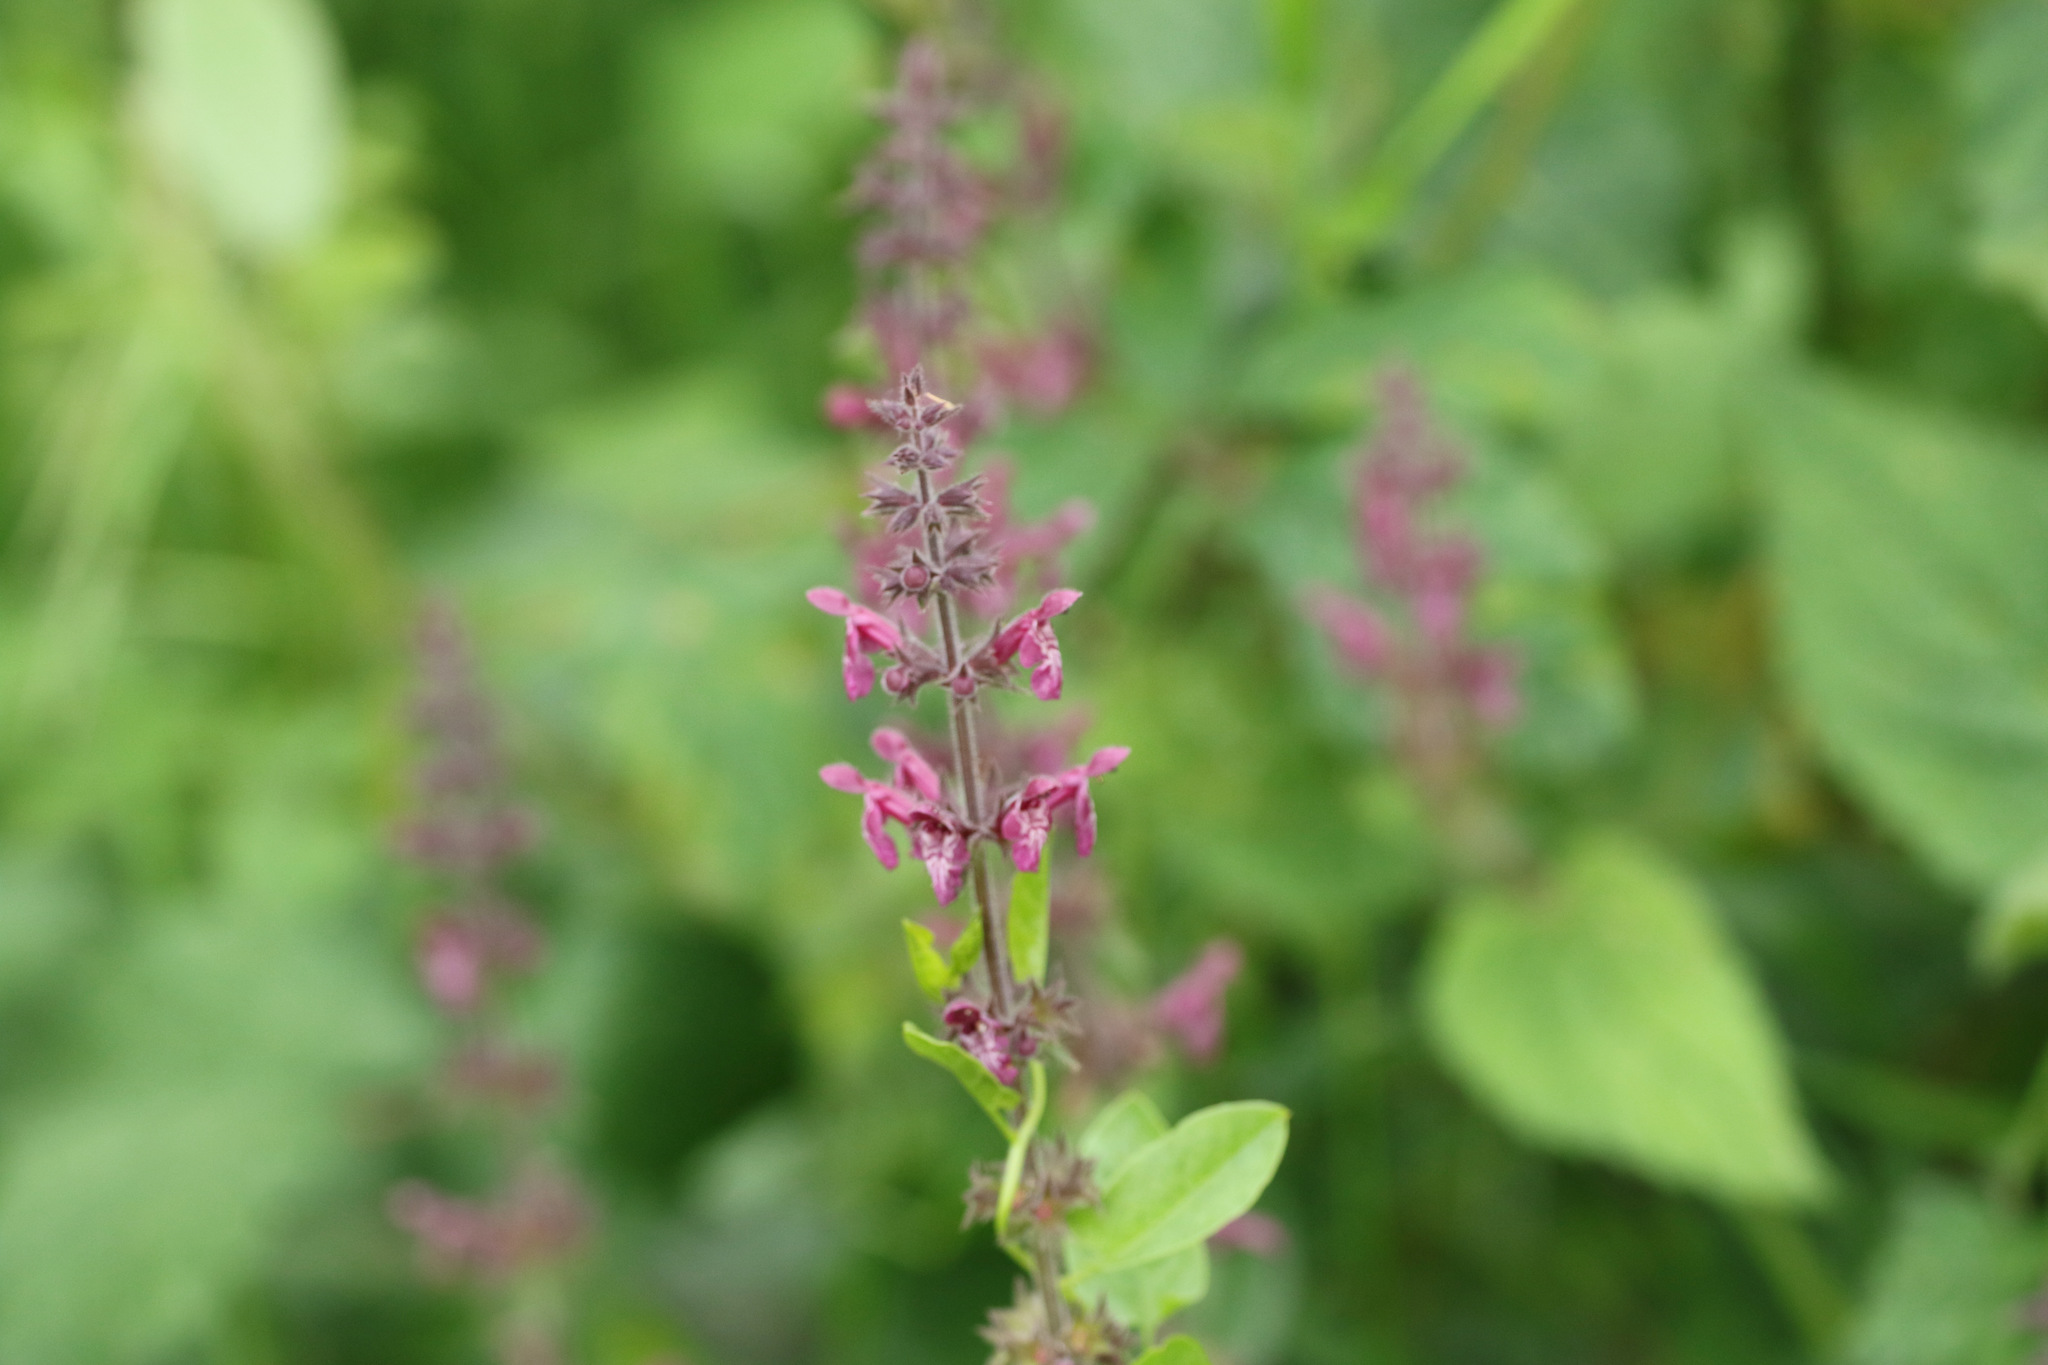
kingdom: Plantae
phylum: Tracheophyta
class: Magnoliopsida
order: Lamiales
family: Lamiaceae
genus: Stachys
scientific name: Stachys sylvatica
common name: Hedge woundwort
